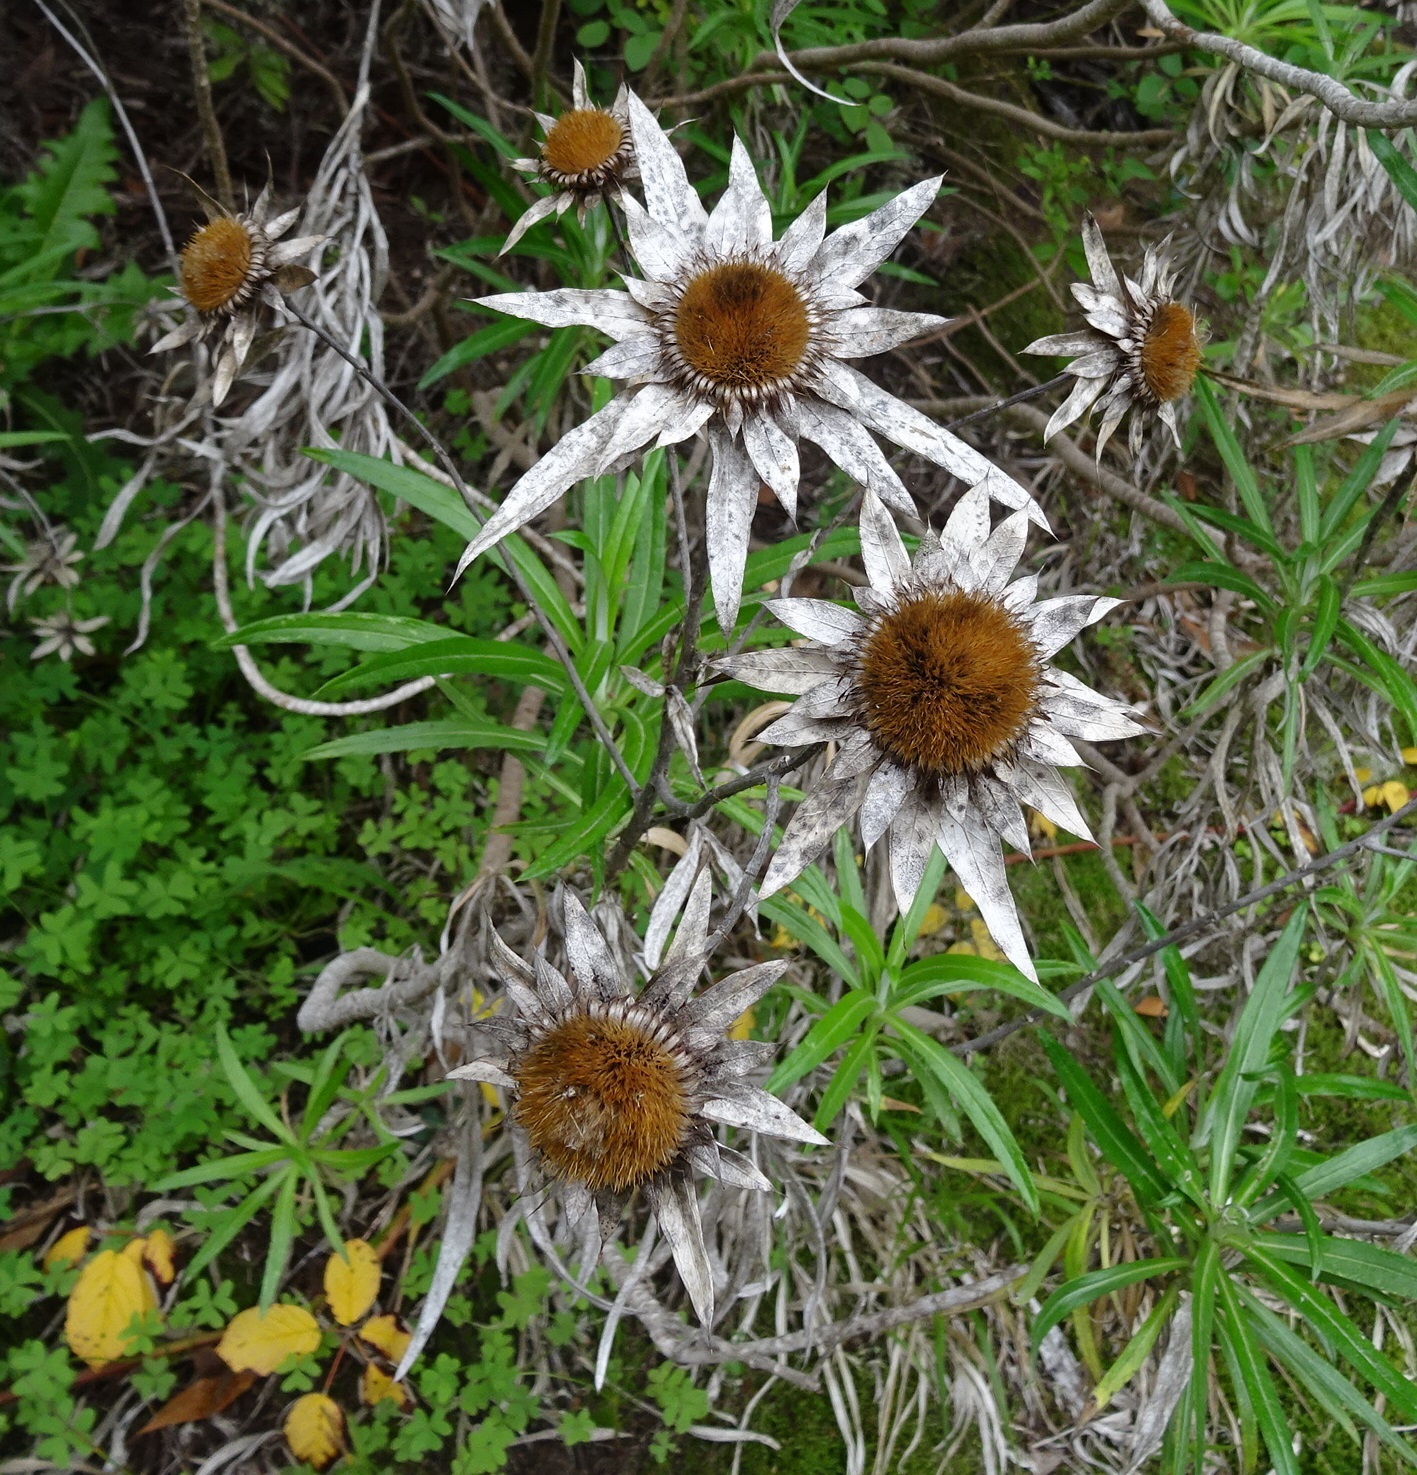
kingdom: Plantae
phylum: Tracheophyta
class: Magnoliopsida
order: Asterales
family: Asteraceae
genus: Carlina
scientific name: Carlina salicifolia
